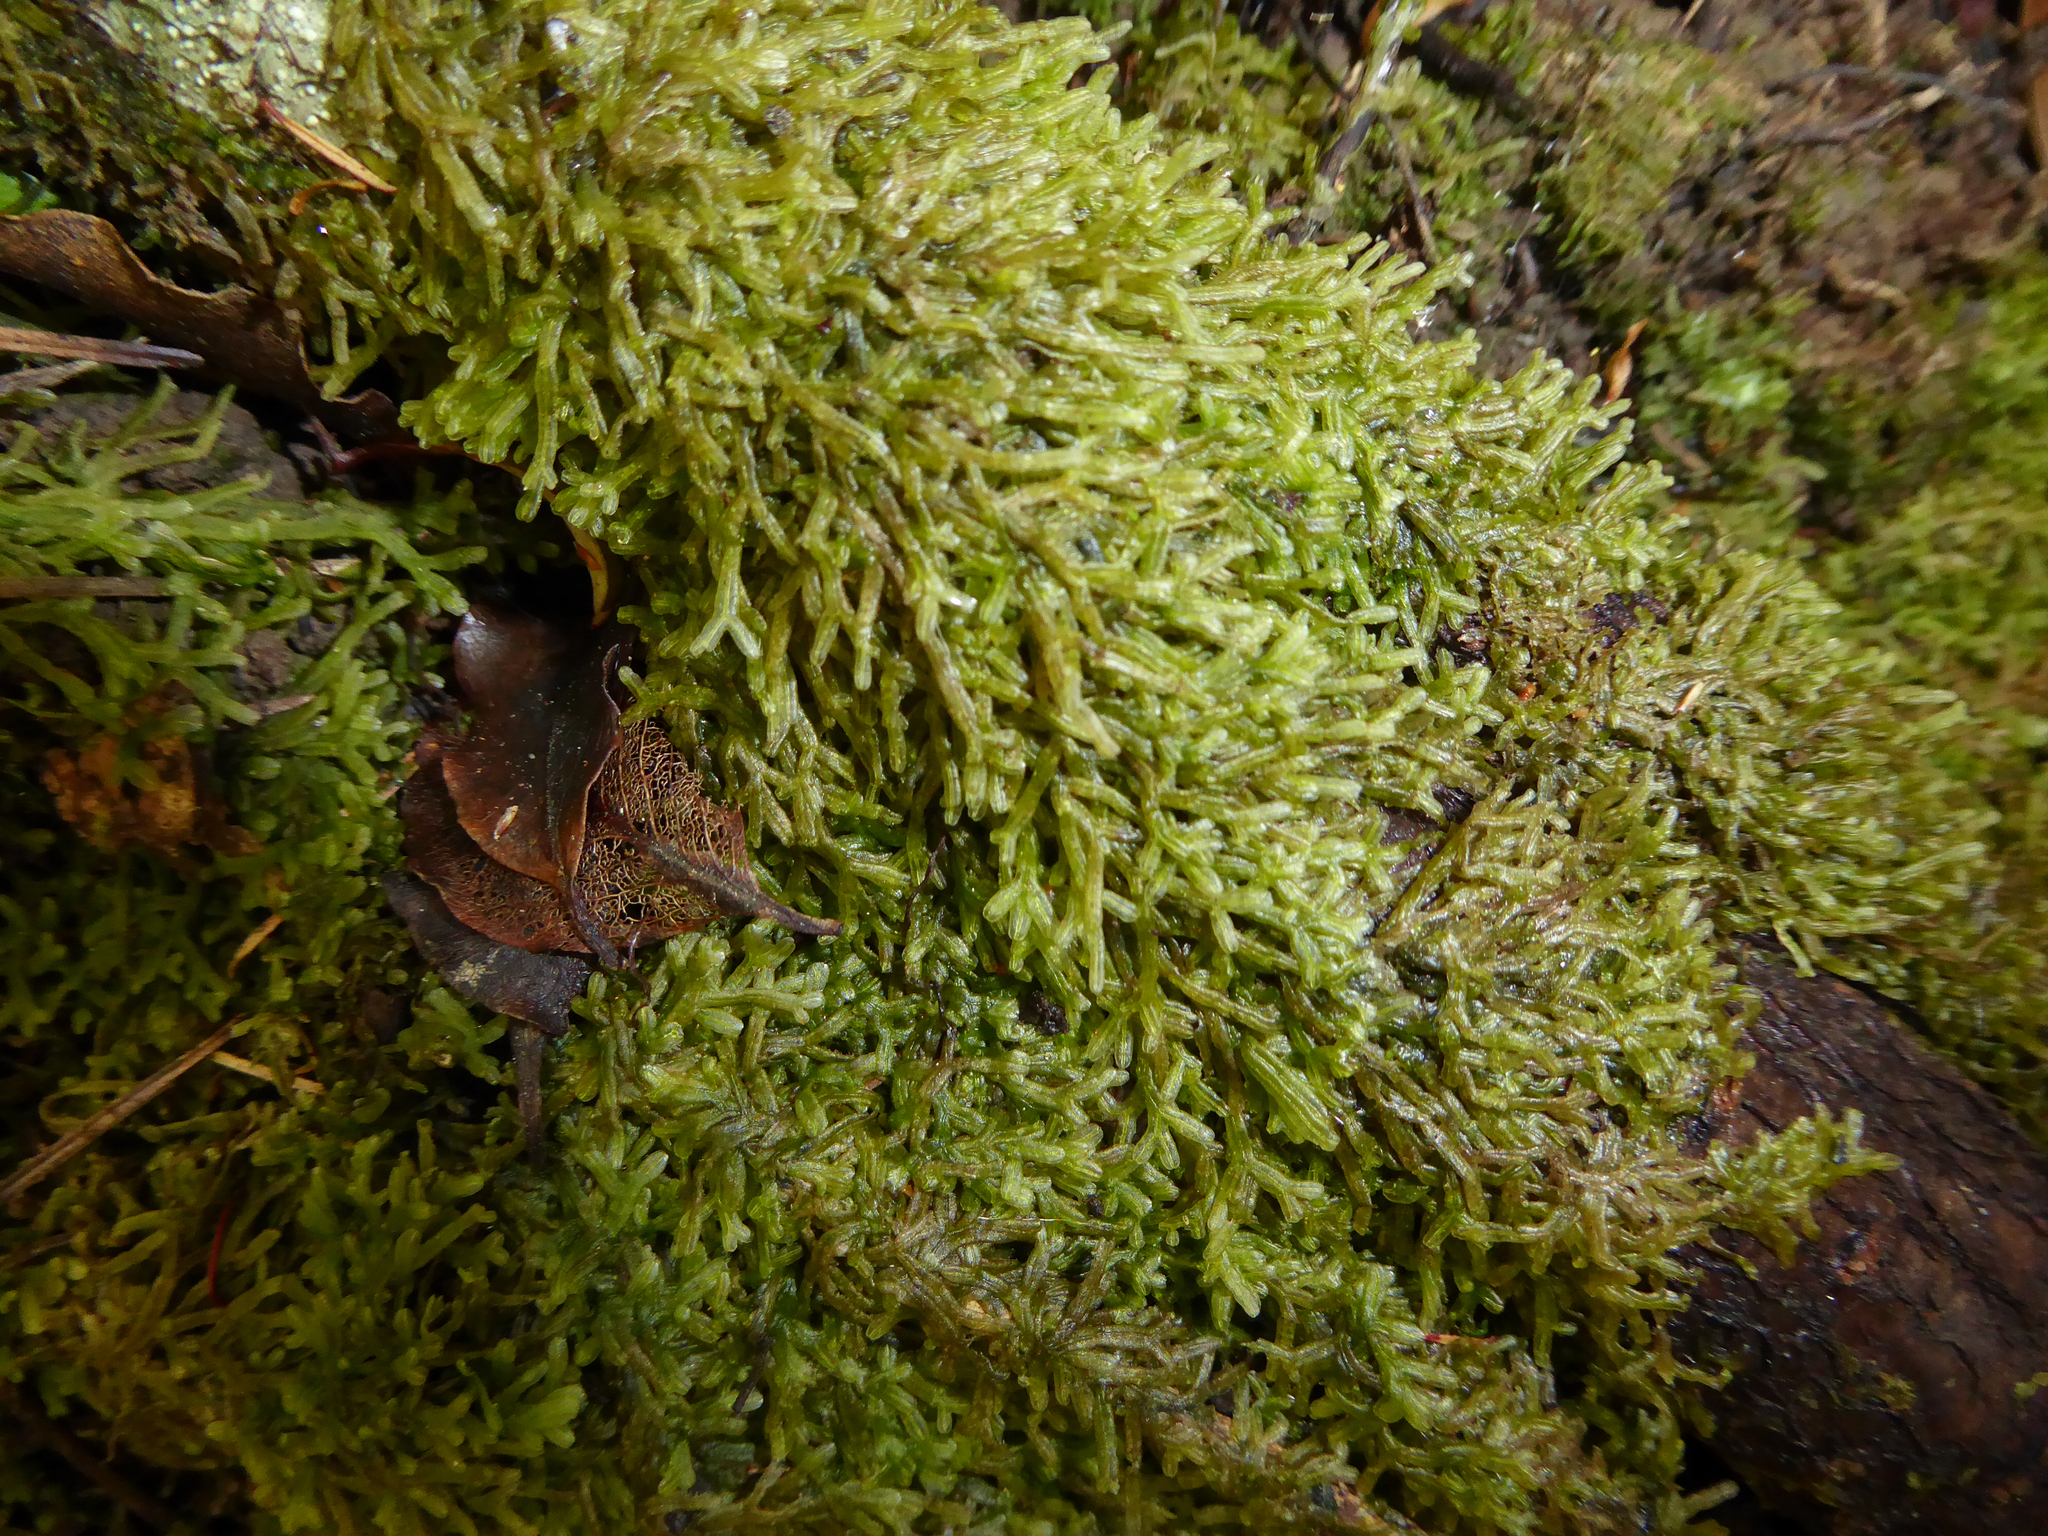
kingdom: Plantae
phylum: Marchantiophyta
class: Jungermanniopsida
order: Metzgeriales
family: Metzgeriaceae
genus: Metzgeria
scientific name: Metzgeria furcata
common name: Forked veilwort
